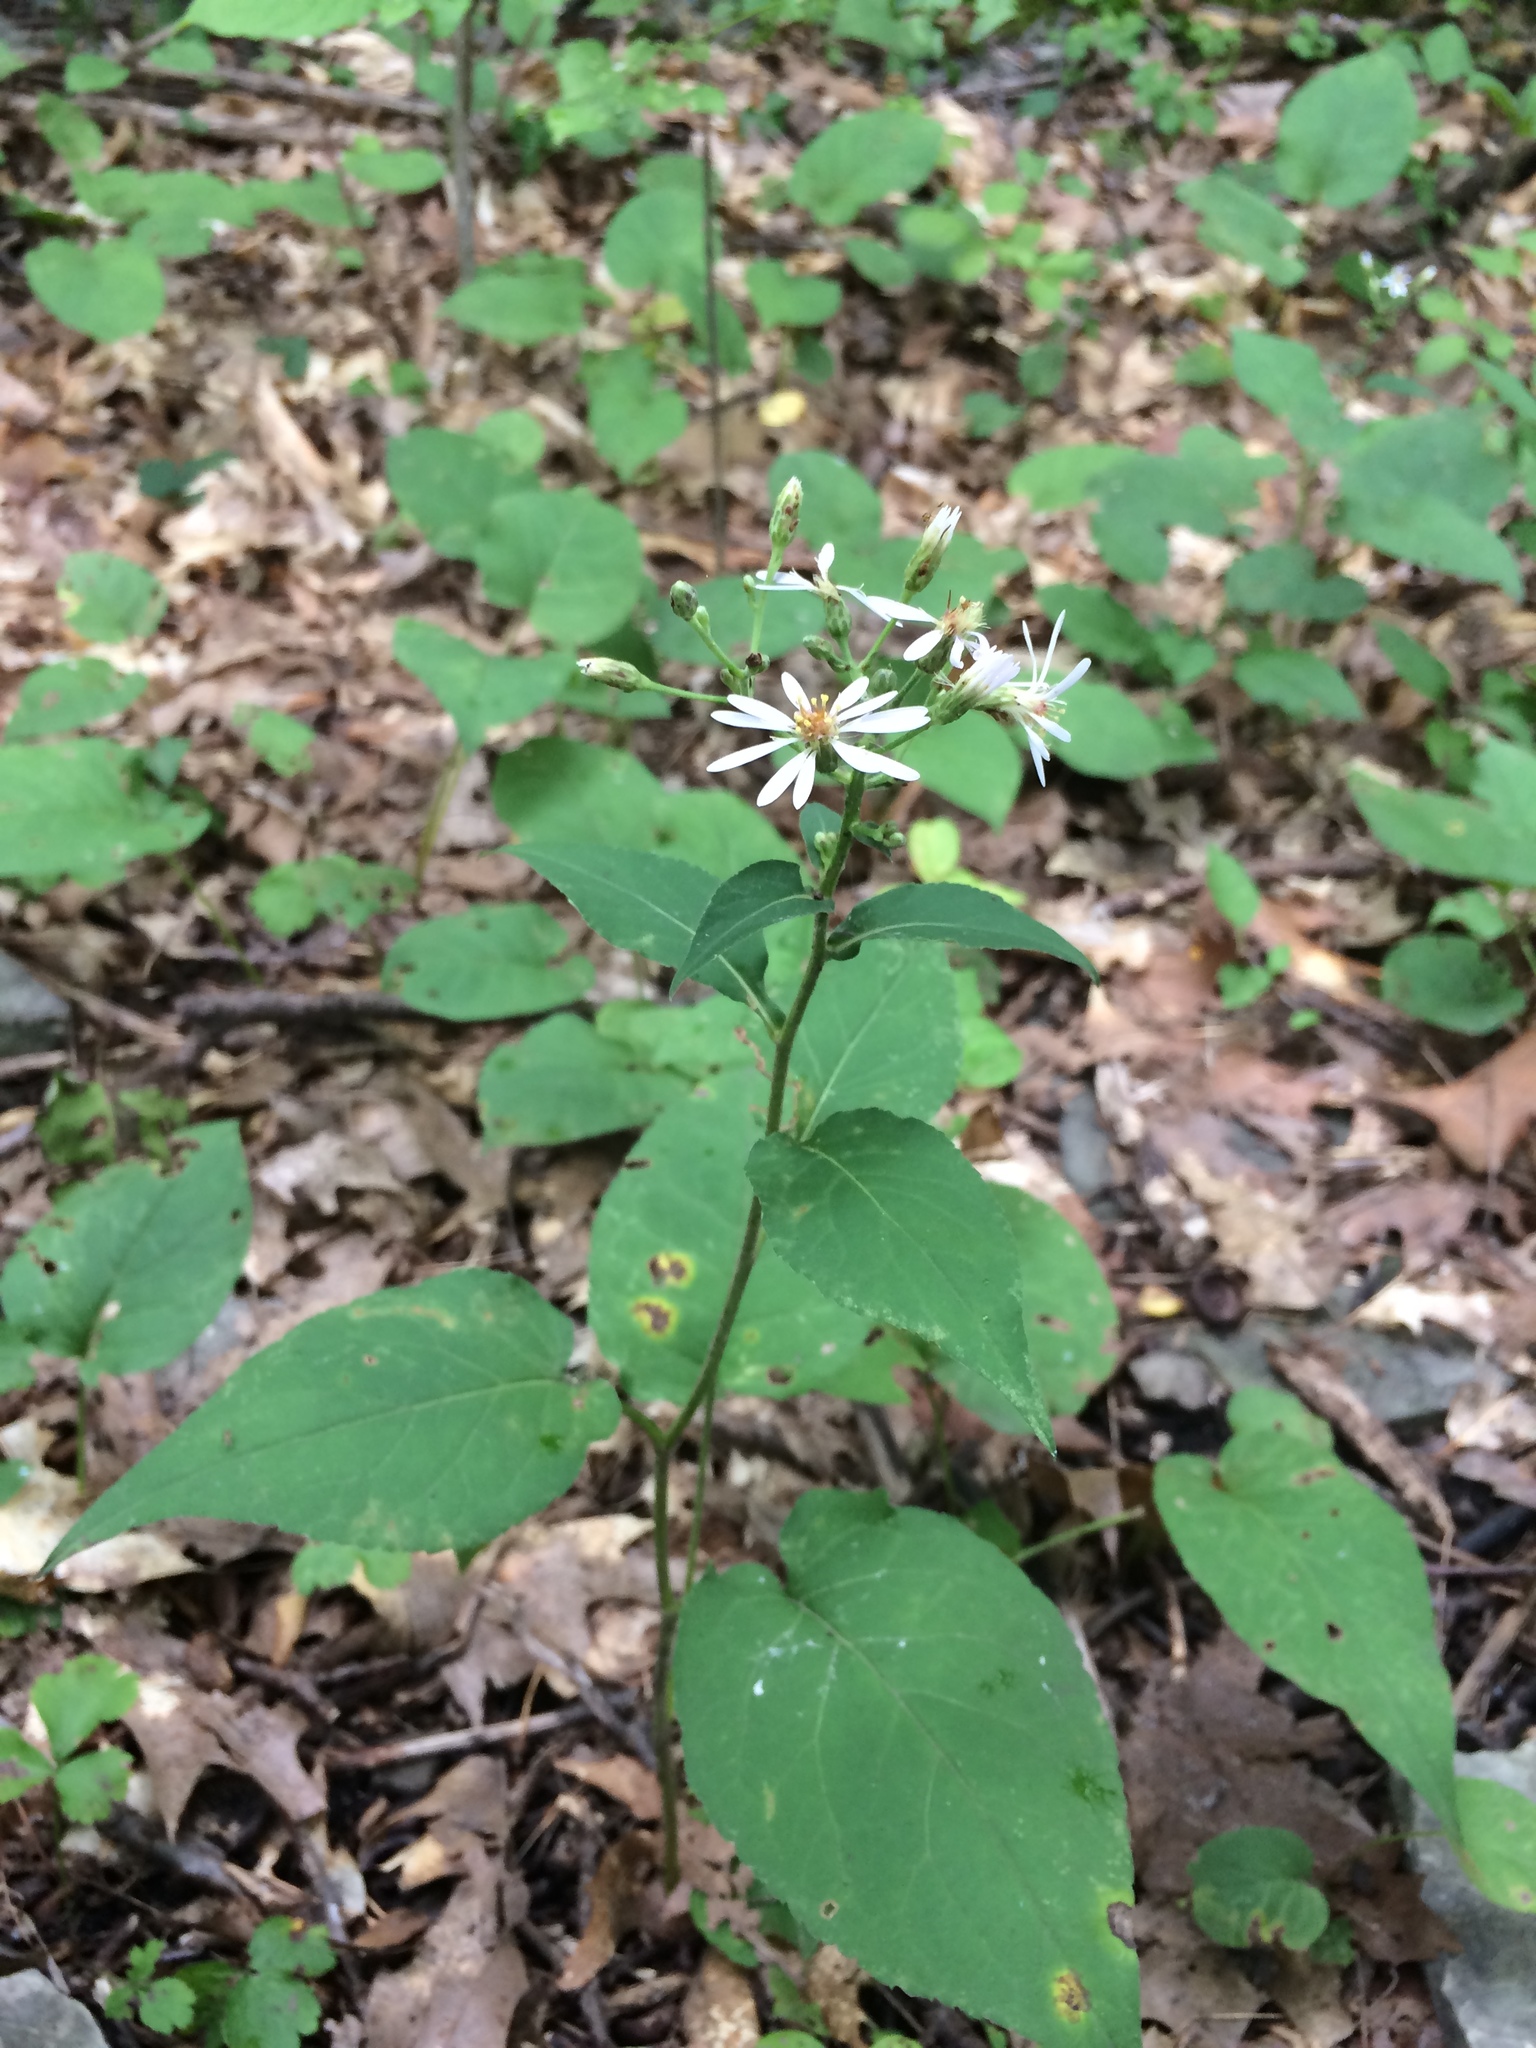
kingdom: Plantae
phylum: Tracheophyta
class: Magnoliopsida
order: Asterales
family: Asteraceae
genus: Eurybia
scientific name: Eurybia macrophylla
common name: Big-leaved aster
